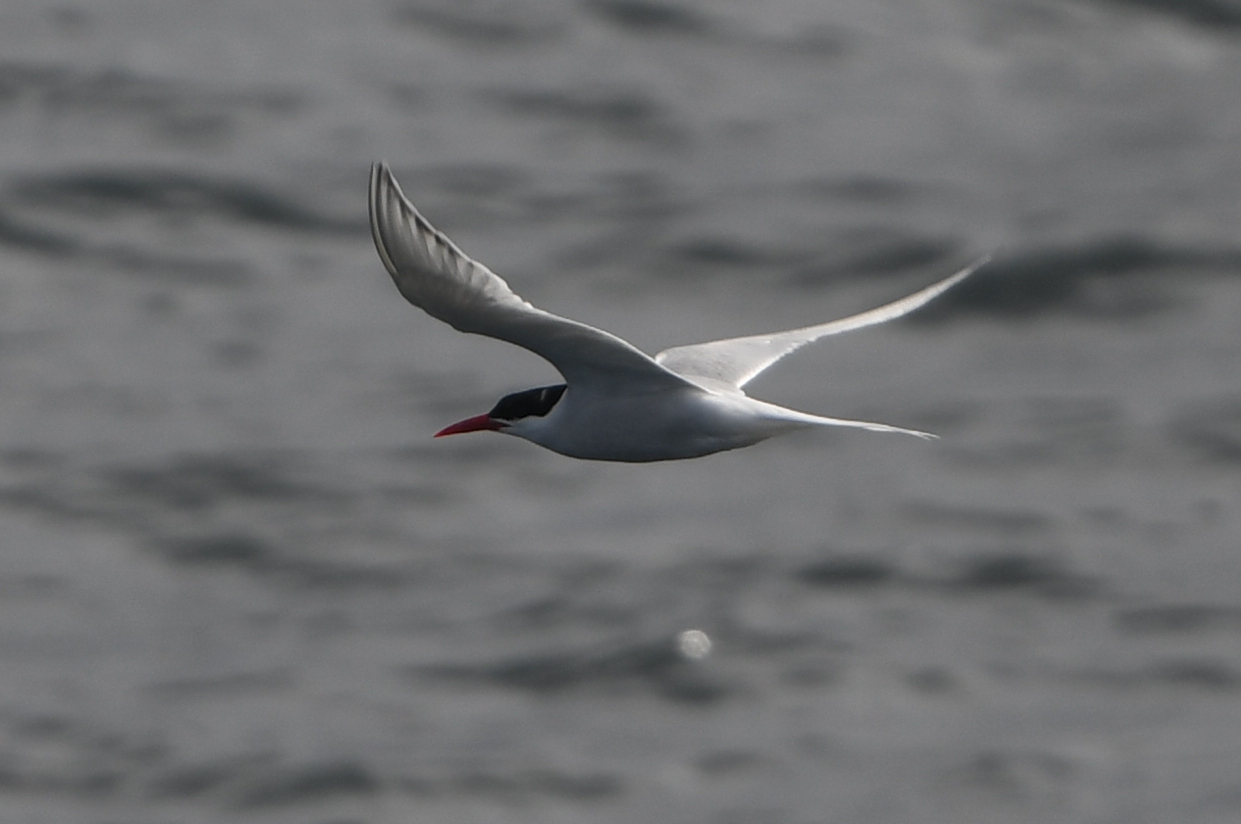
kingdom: Animalia
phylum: Chordata
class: Aves
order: Charadriiformes
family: Laridae
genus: Sterna
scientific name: Sterna hirundinacea
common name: South american tern
